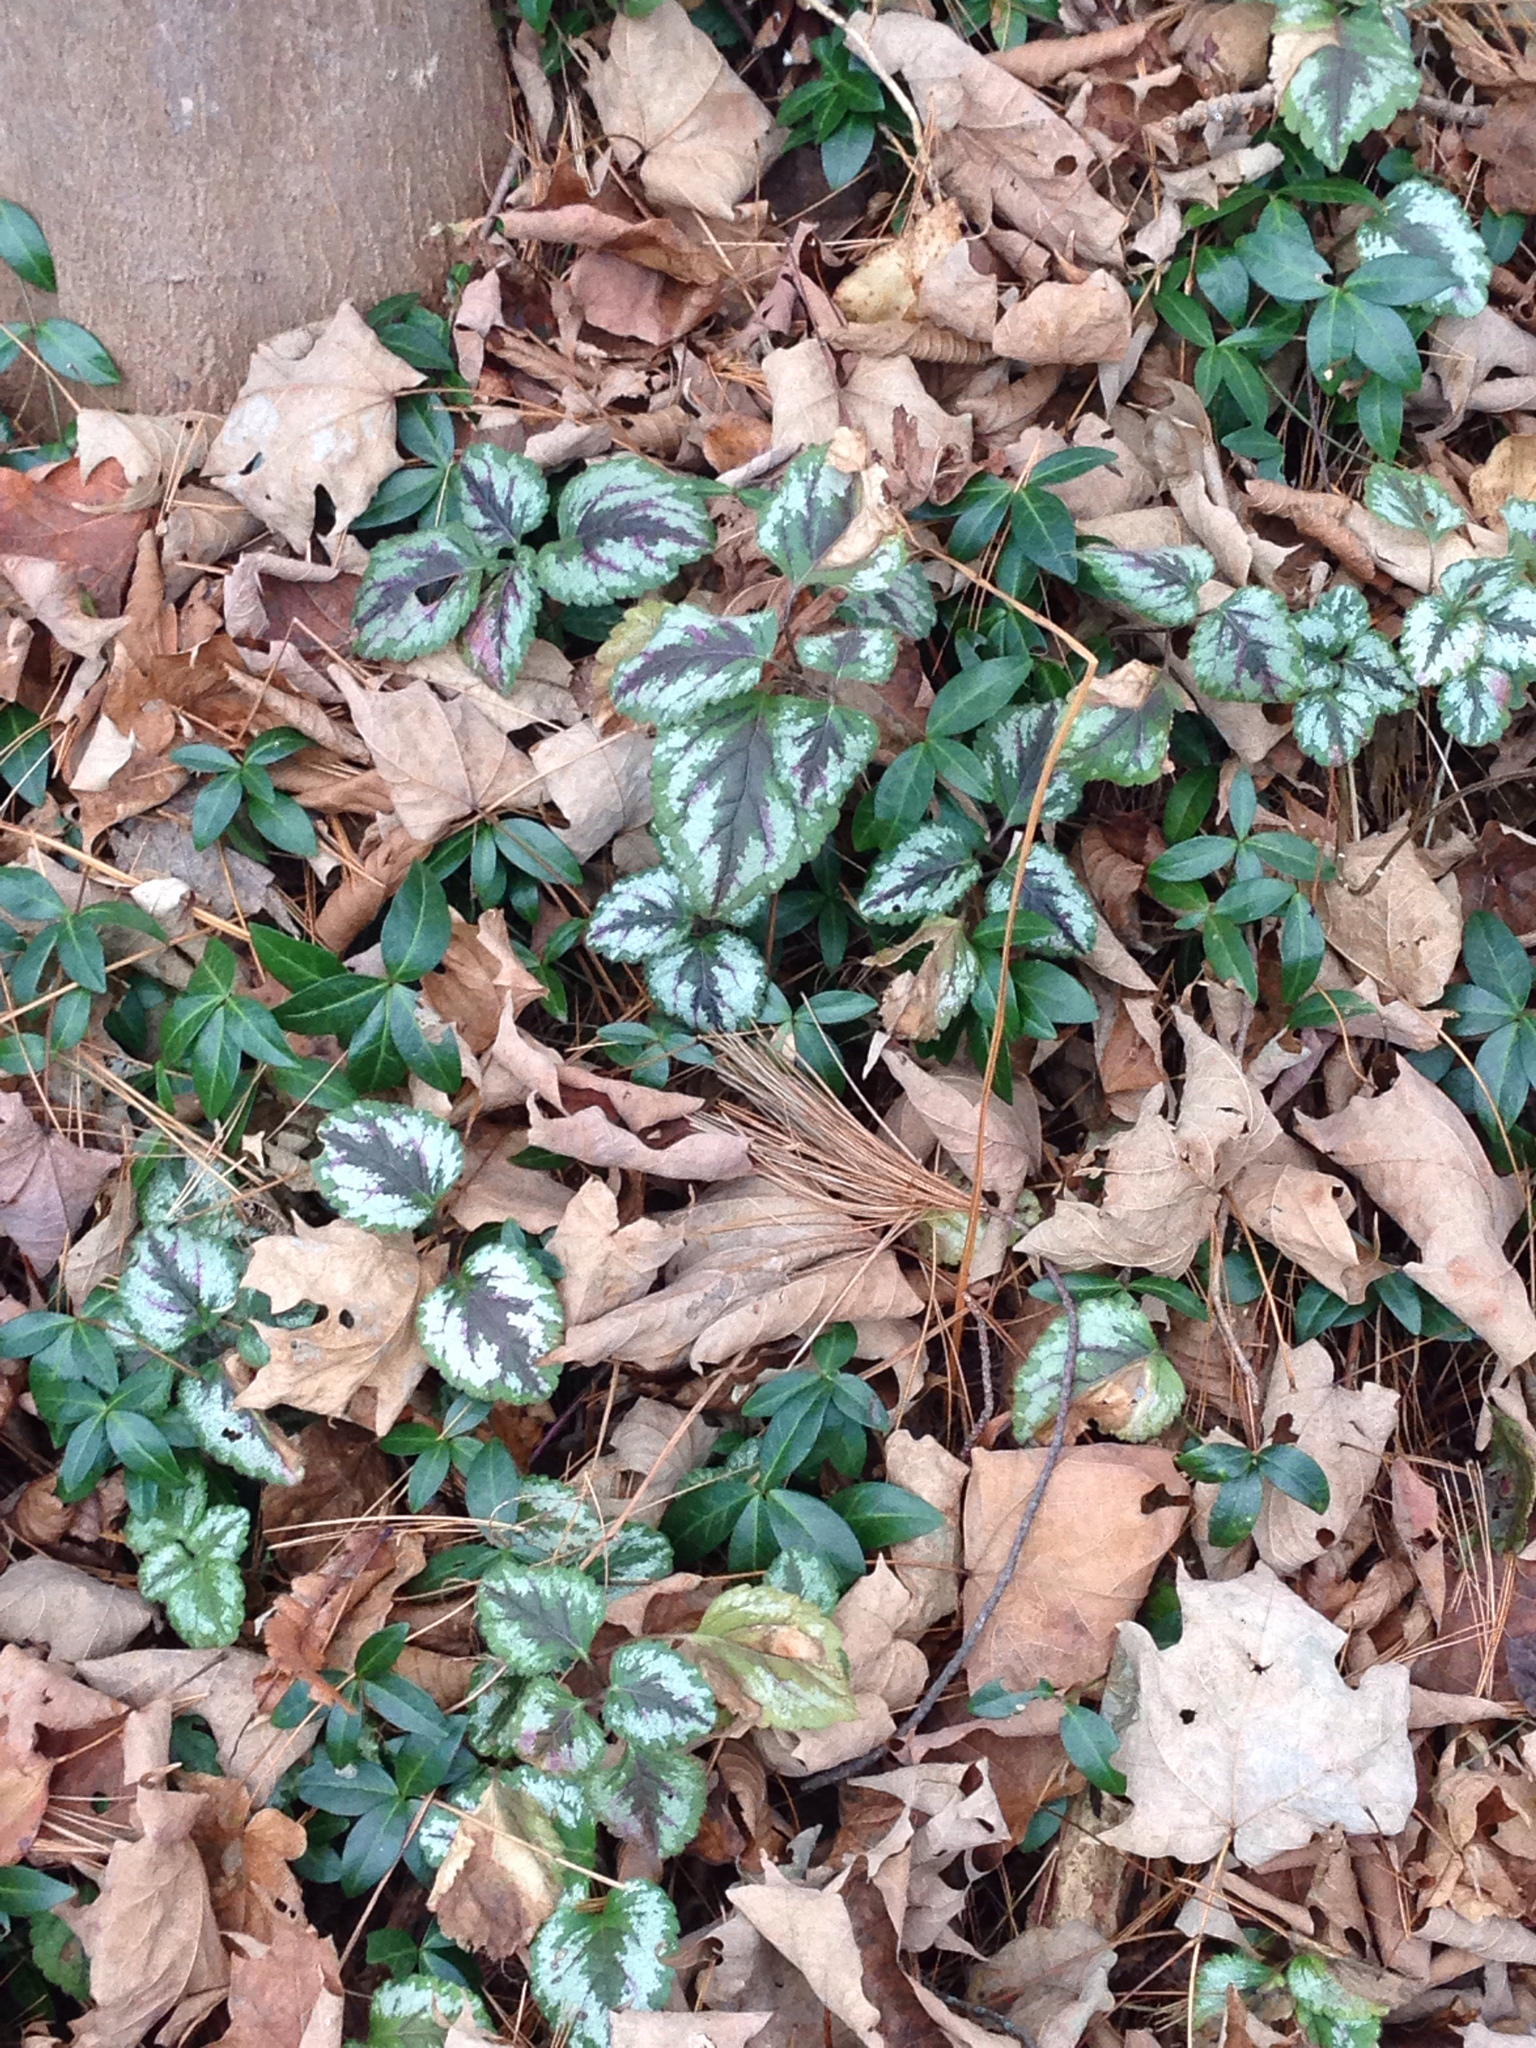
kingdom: Plantae
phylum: Tracheophyta
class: Magnoliopsida
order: Lamiales
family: Lamiaceae
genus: Lamium
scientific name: Lamium galeobdolon
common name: Yellow archangel
